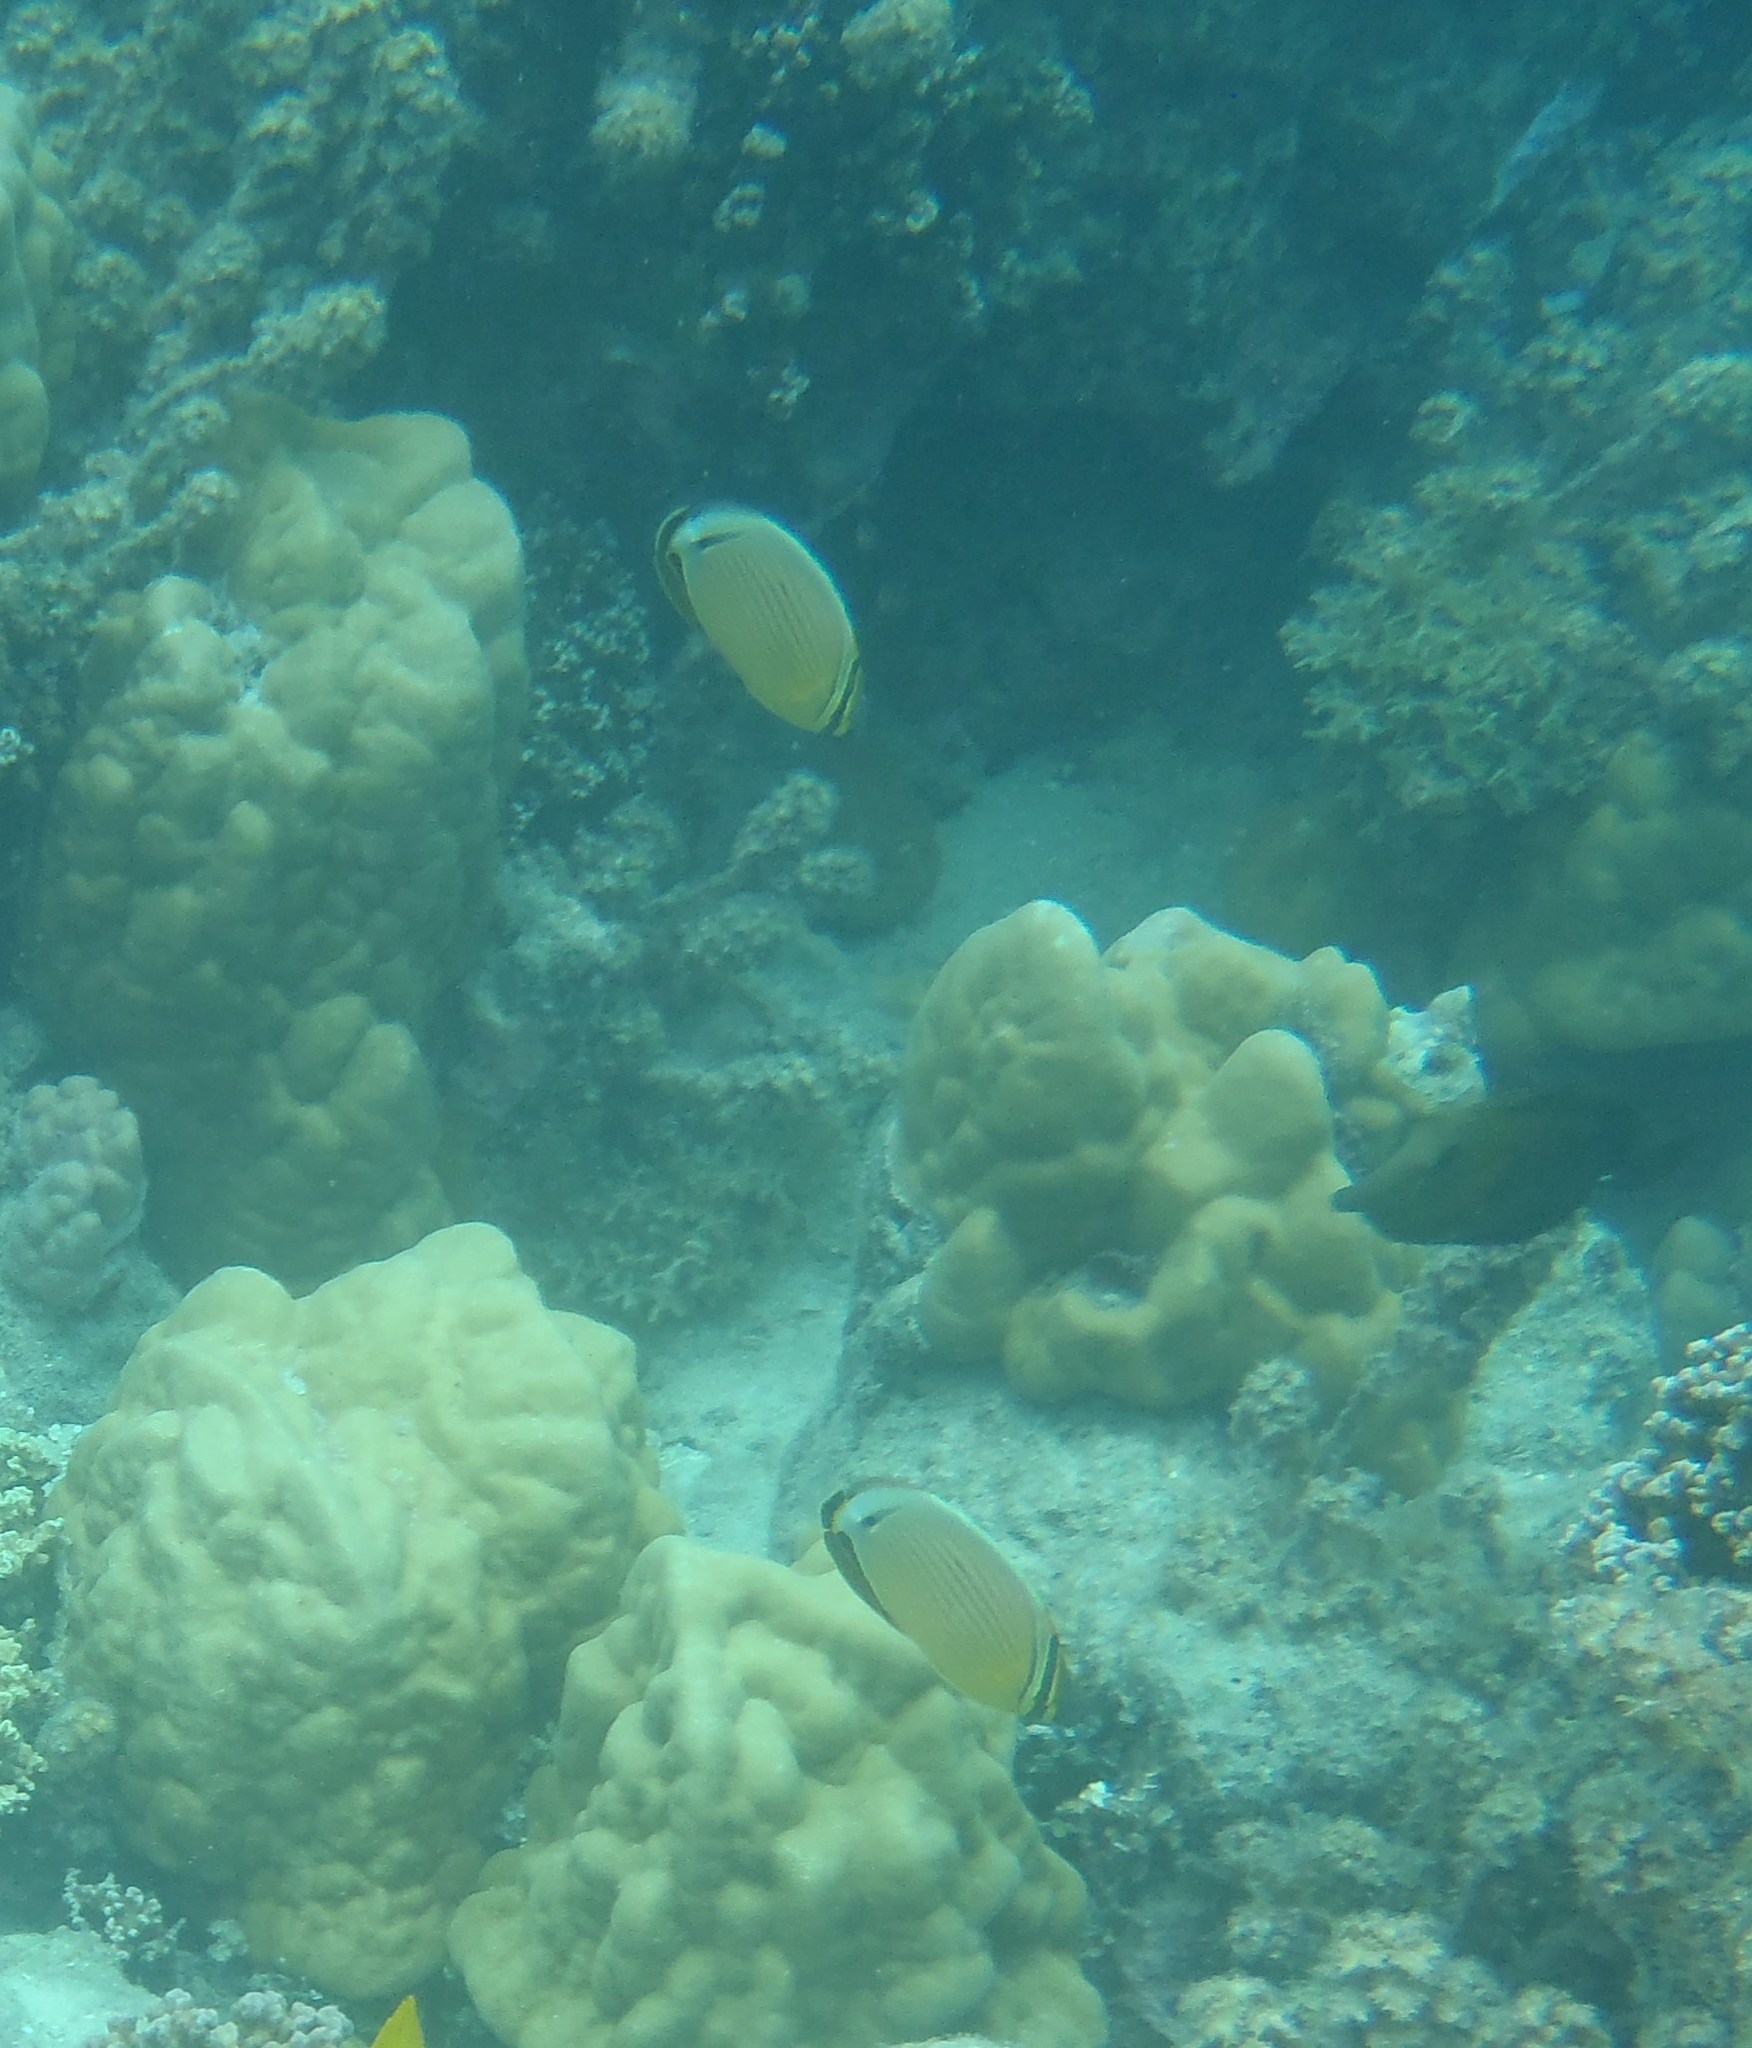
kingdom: Animalia
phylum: Chordata
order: Perciformes
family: Chaetodontidae
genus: Chaetodon
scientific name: Chaetodon lunulatus
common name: Redfin butterflyfish
